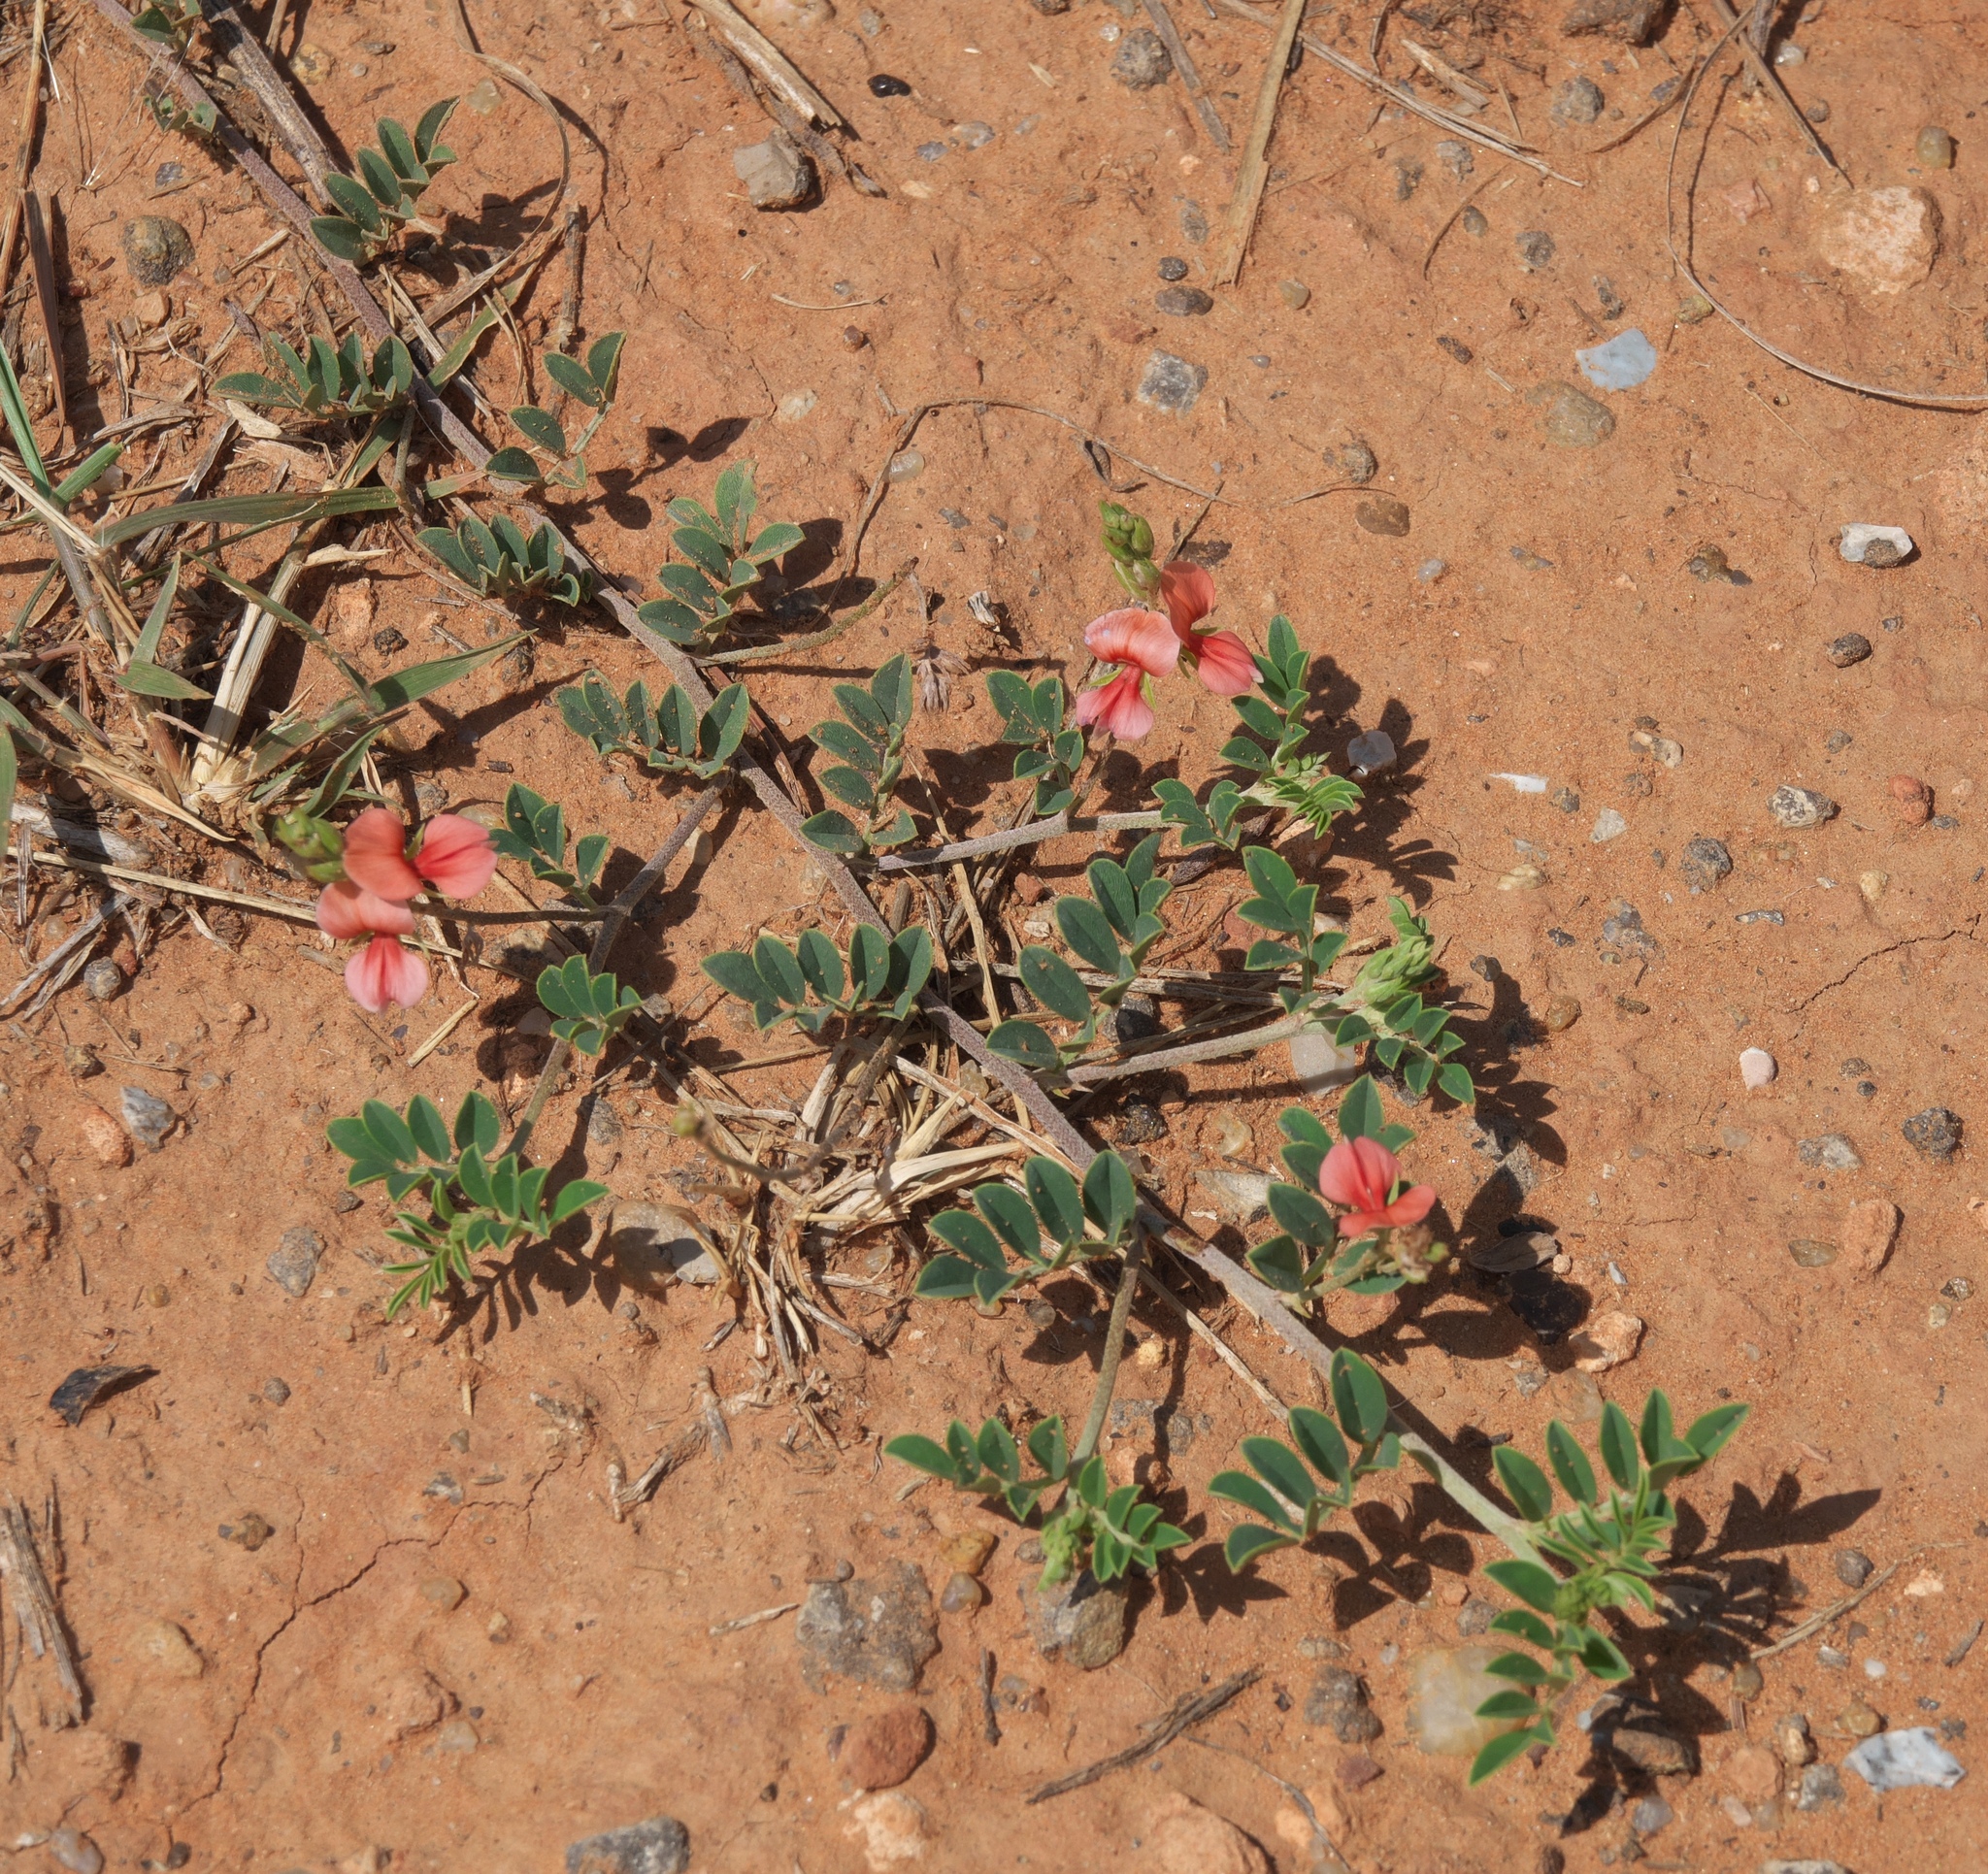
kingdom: Plantae
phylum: Tracheophyta
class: Magnoliopsida
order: Fabales
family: Fabaceae
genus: Indigofera
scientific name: Indigofera miniata
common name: Coast indigo
